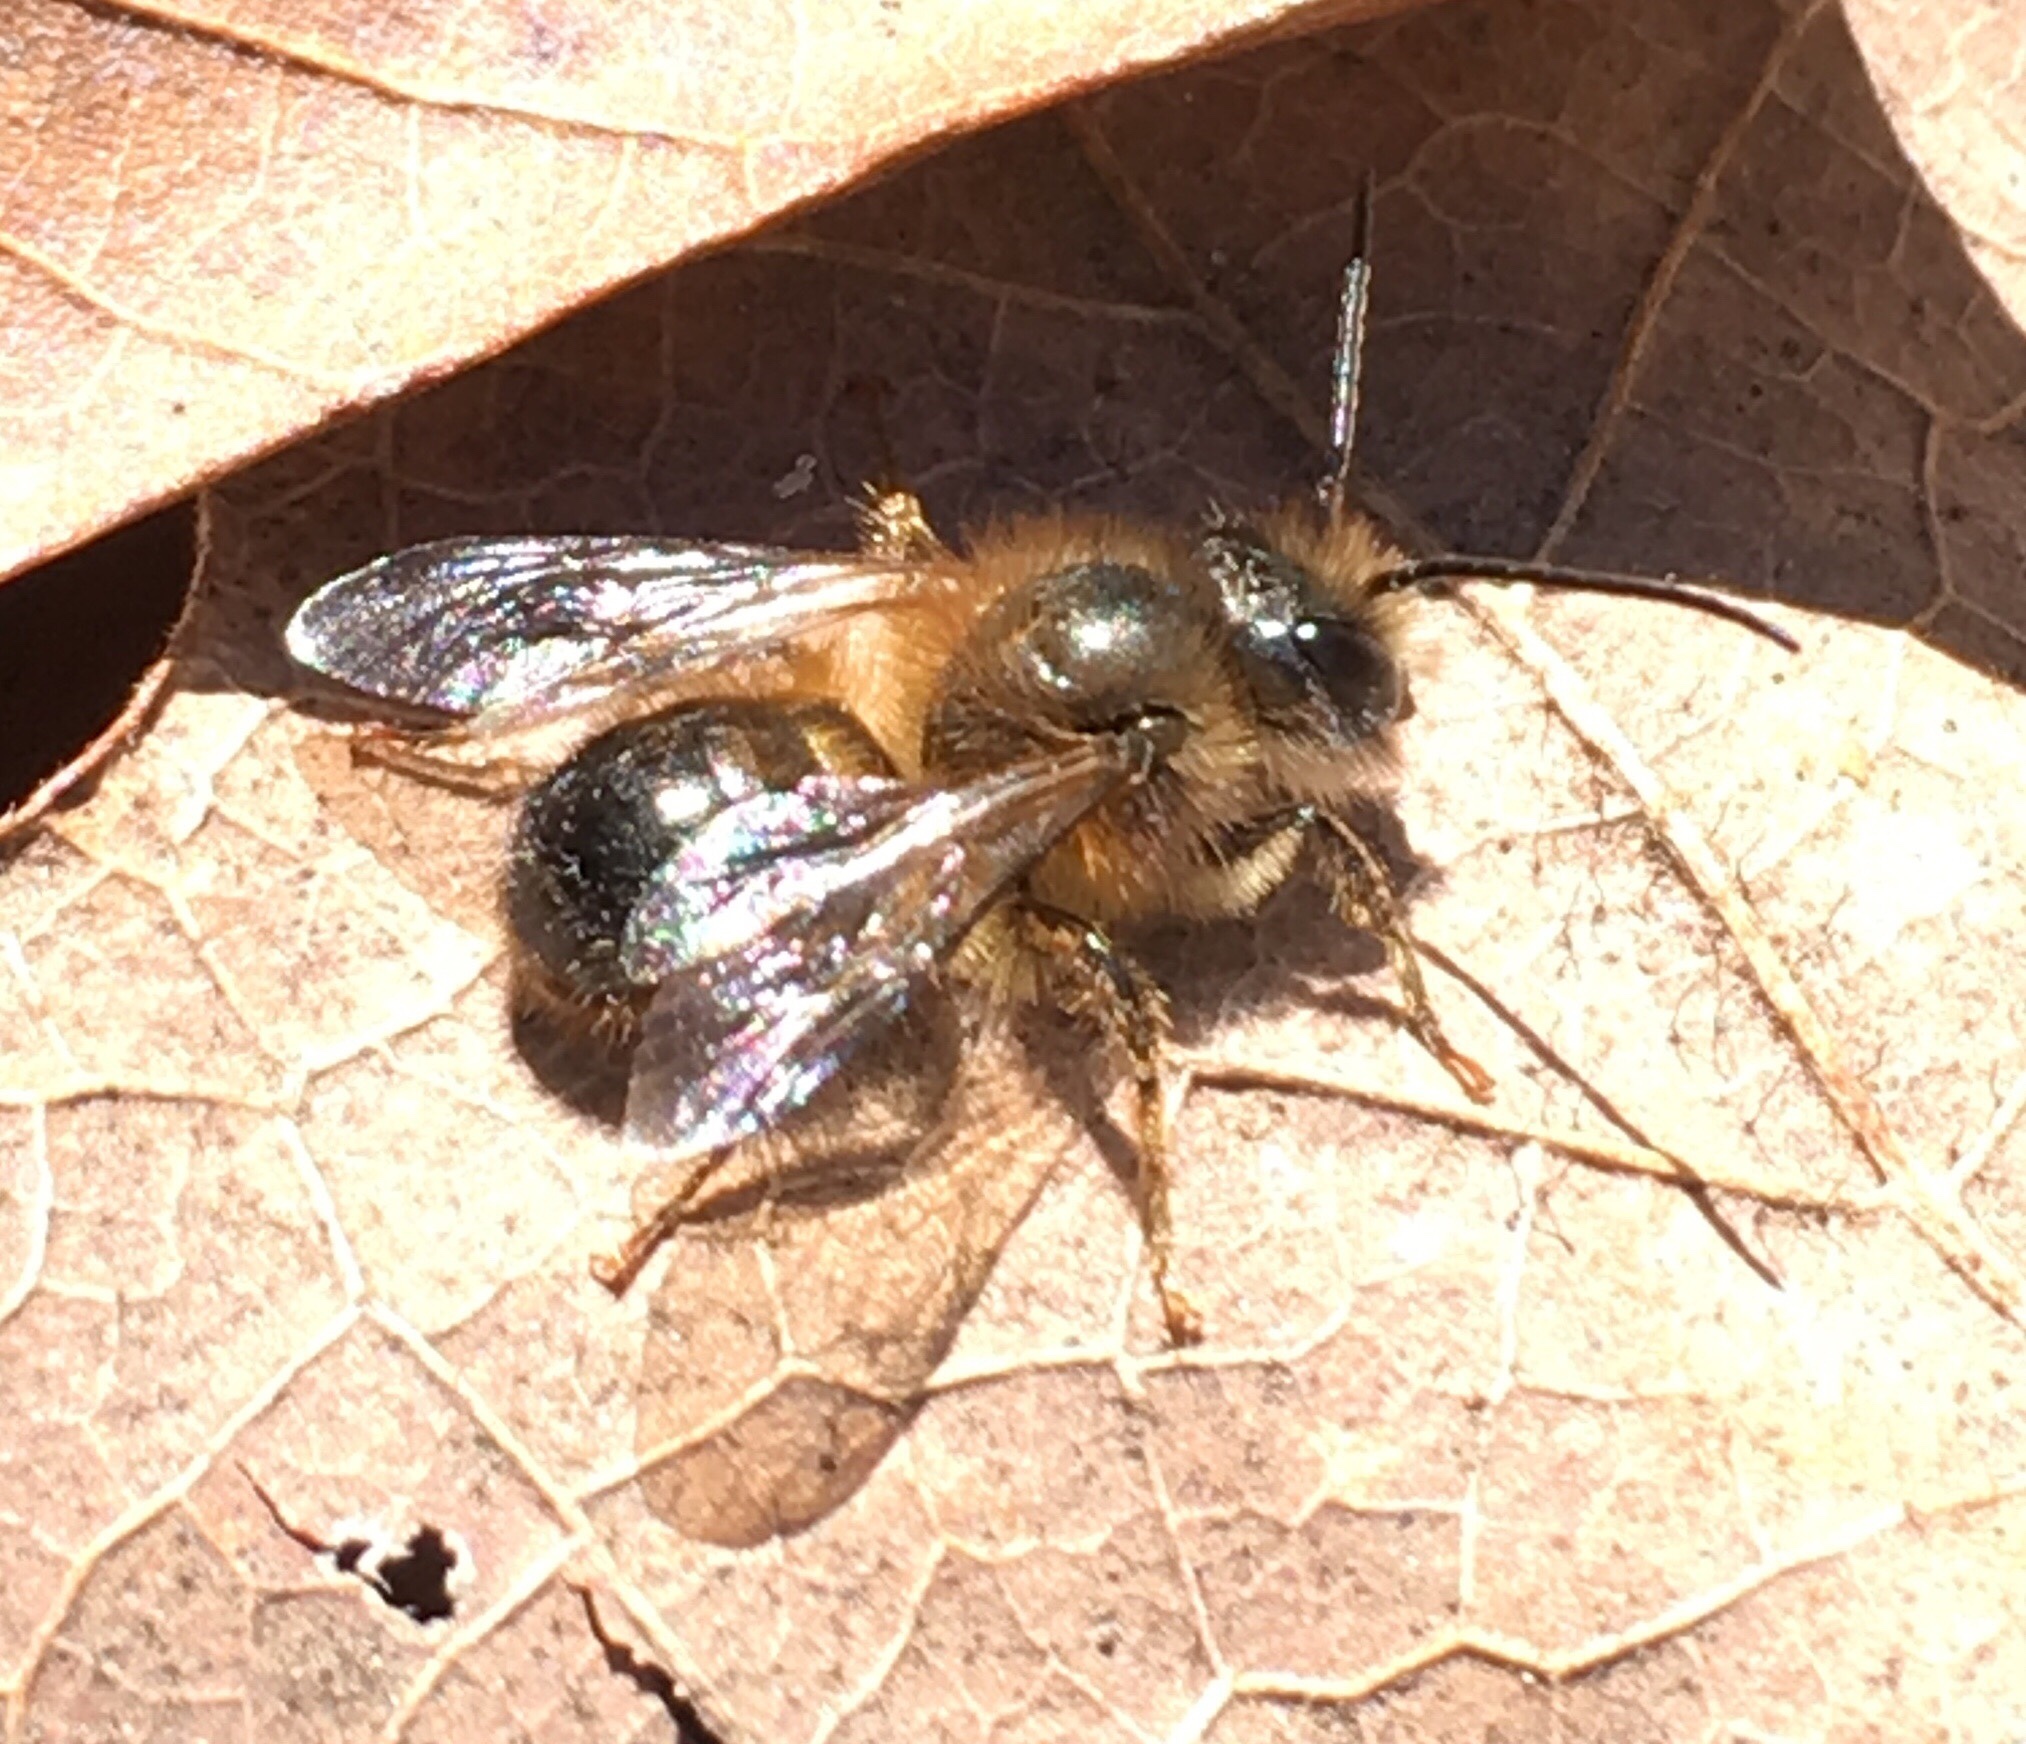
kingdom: Animalia
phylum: Arthropoda
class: Insecta
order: Hymenoptera
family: Megachilidae
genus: Osmia
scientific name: Osmia taurus
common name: Taurus mason bee
